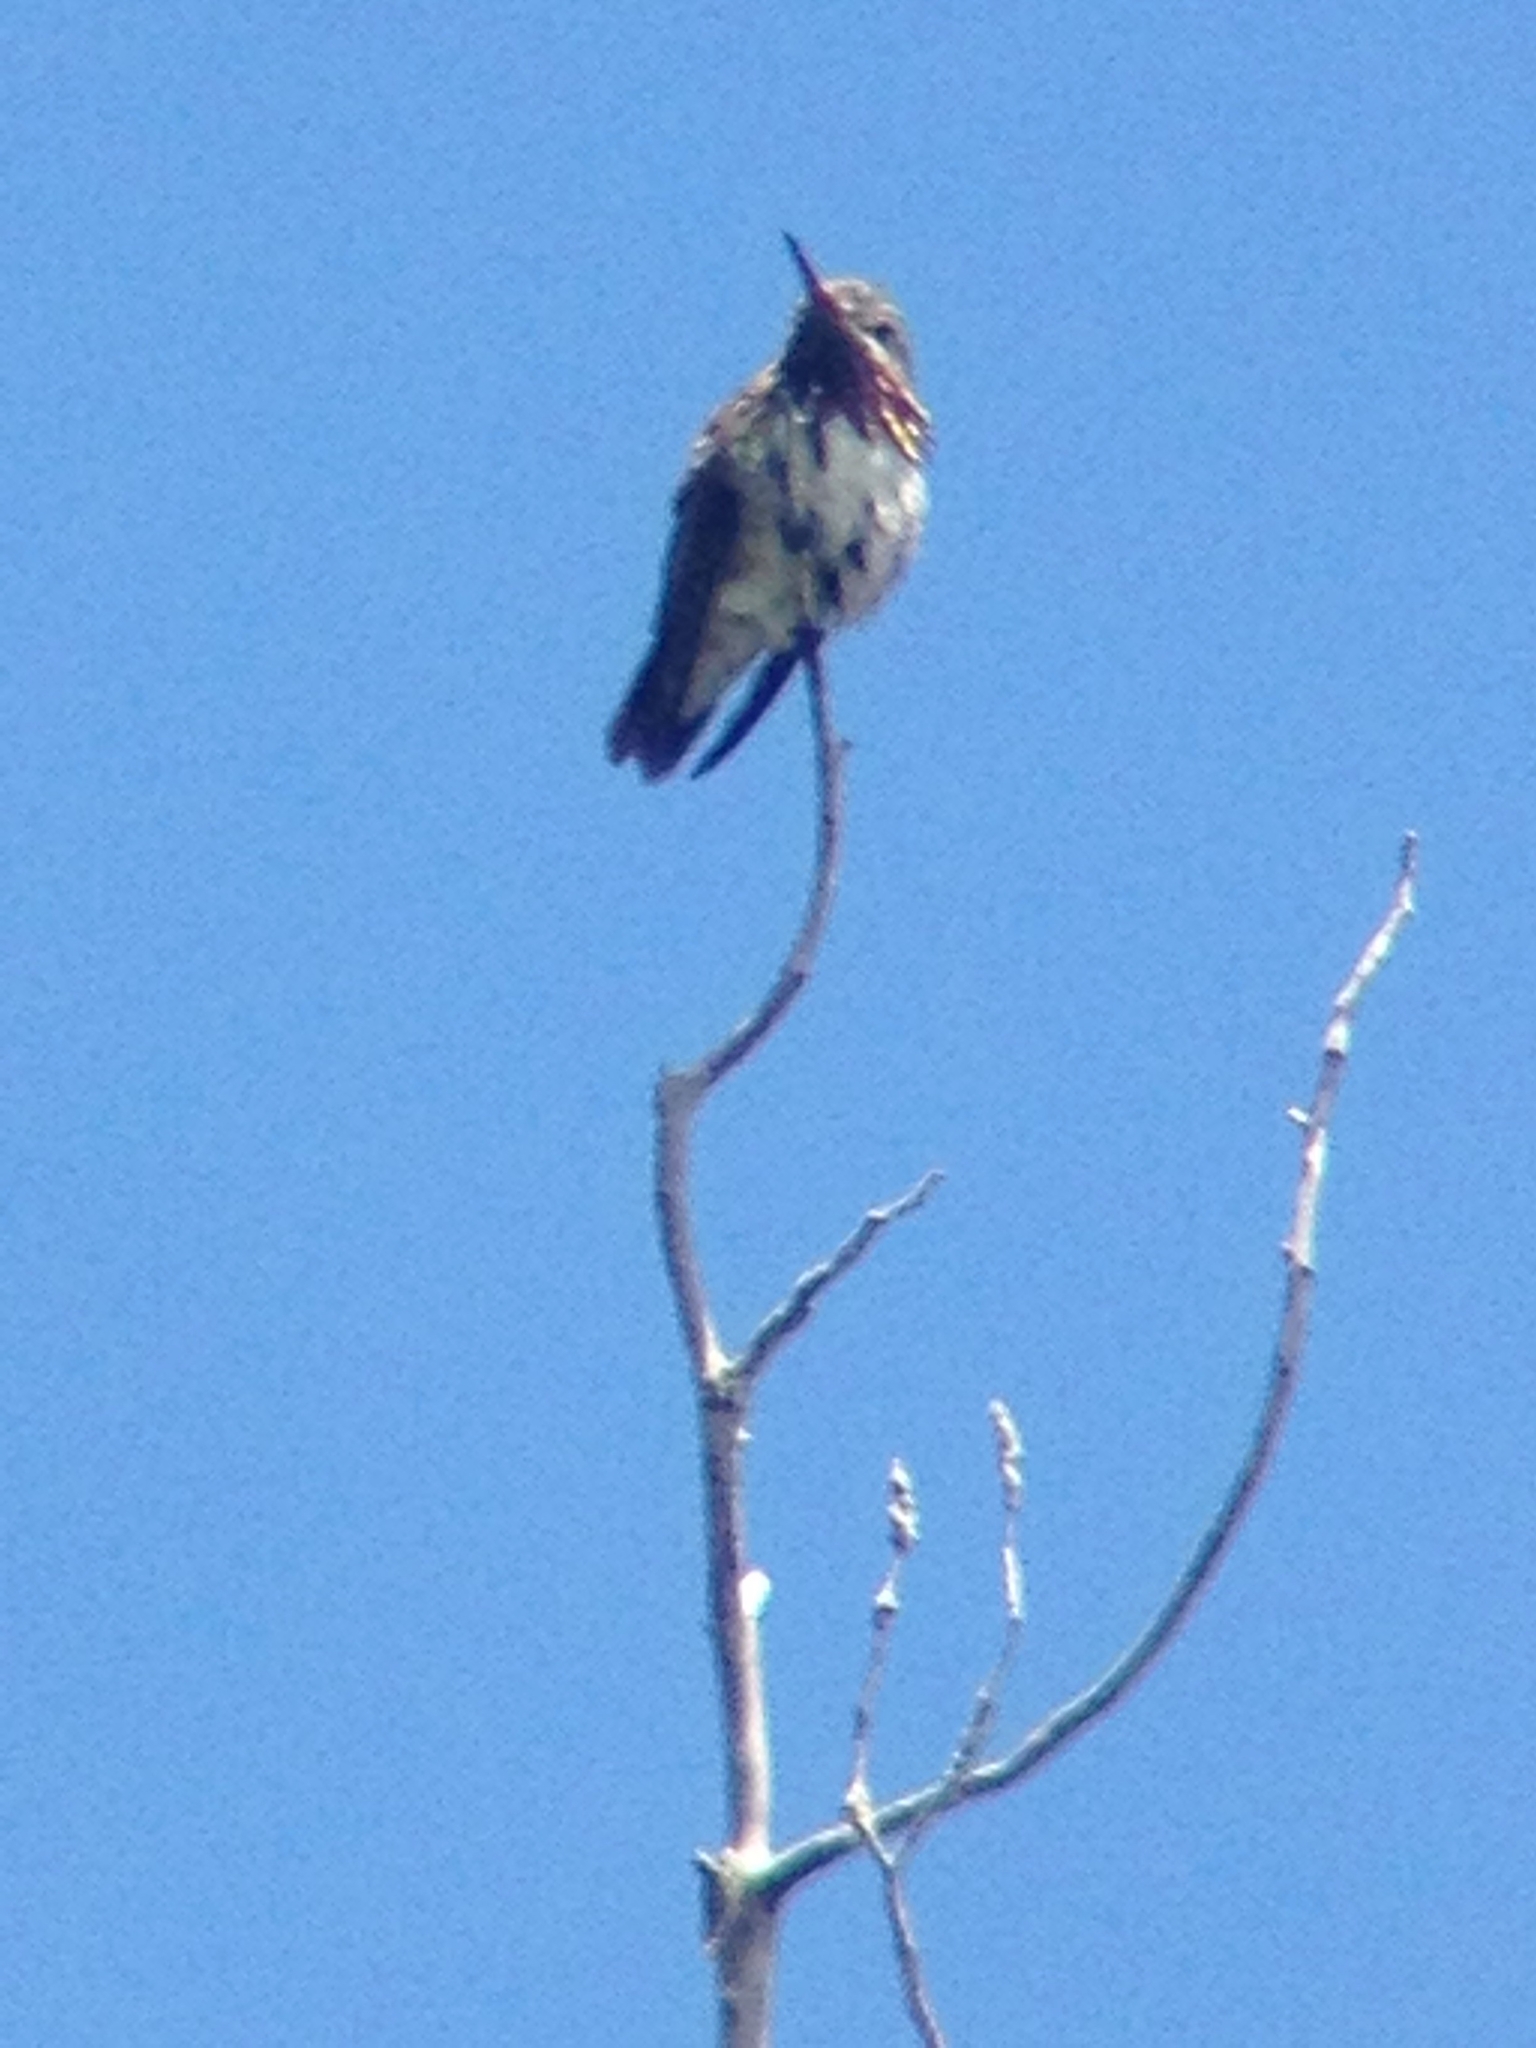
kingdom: Animalia
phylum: Chordata
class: Aves
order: Apodiformes
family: Trochilidae
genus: Selasphorus
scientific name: Selasphorus calliope
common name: Calliope hummingbird
